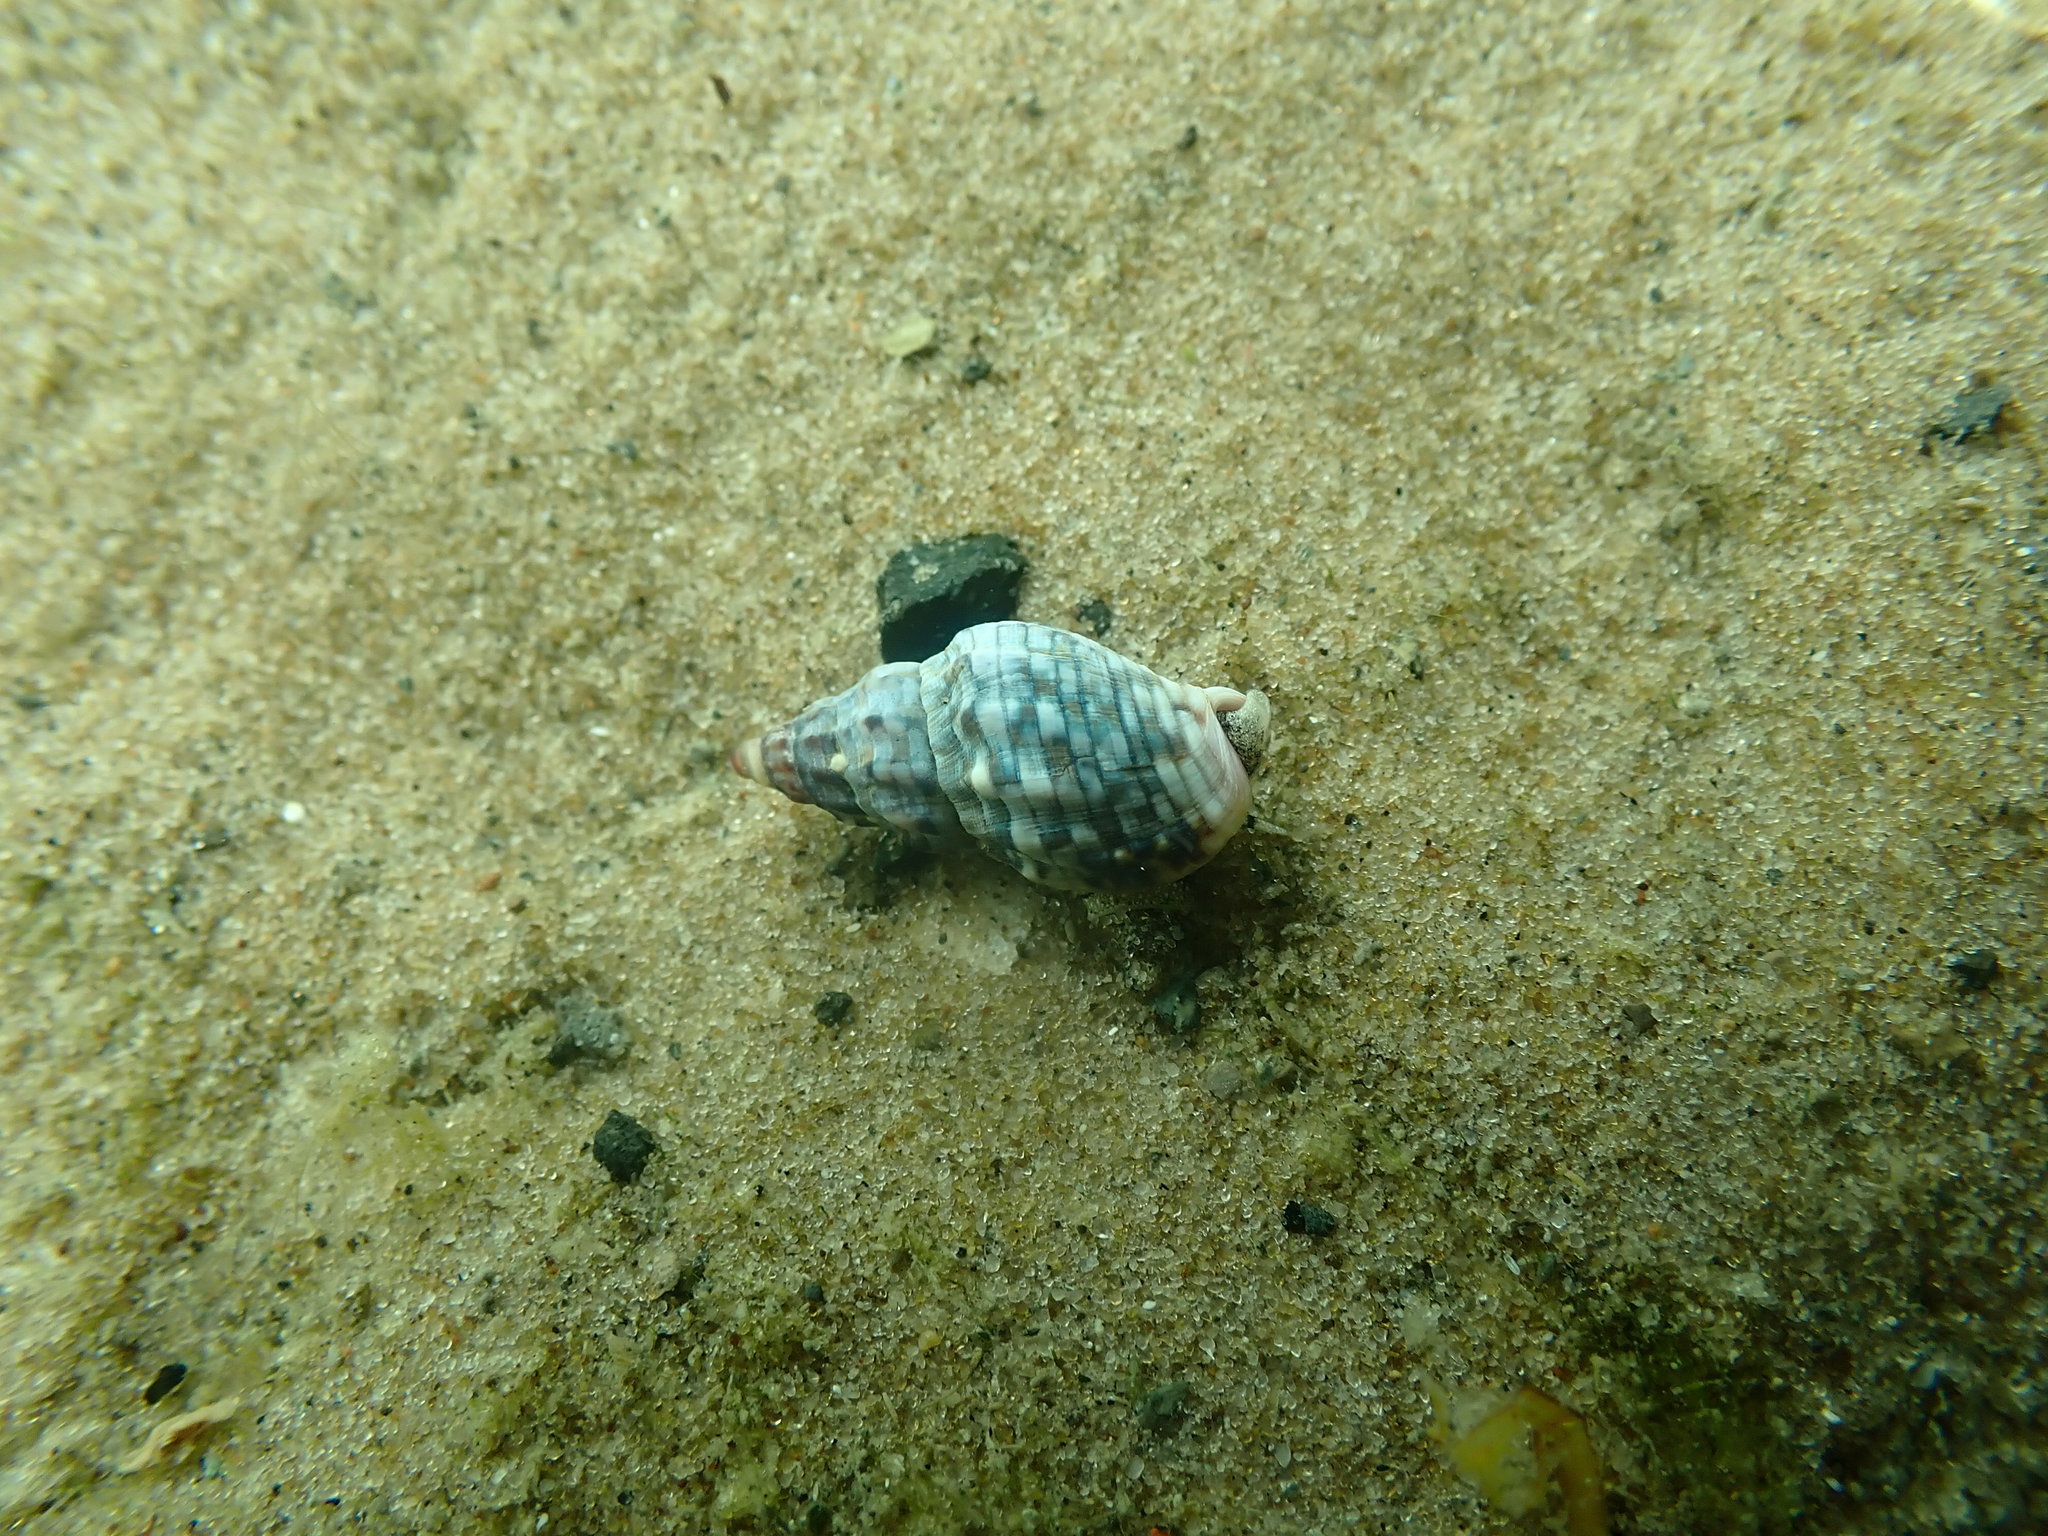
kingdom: Animalia
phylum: Mollusca
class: Gastropoda
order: Neogastropoda
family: Cominellidae
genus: Cominella
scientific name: Cominella quoyana
